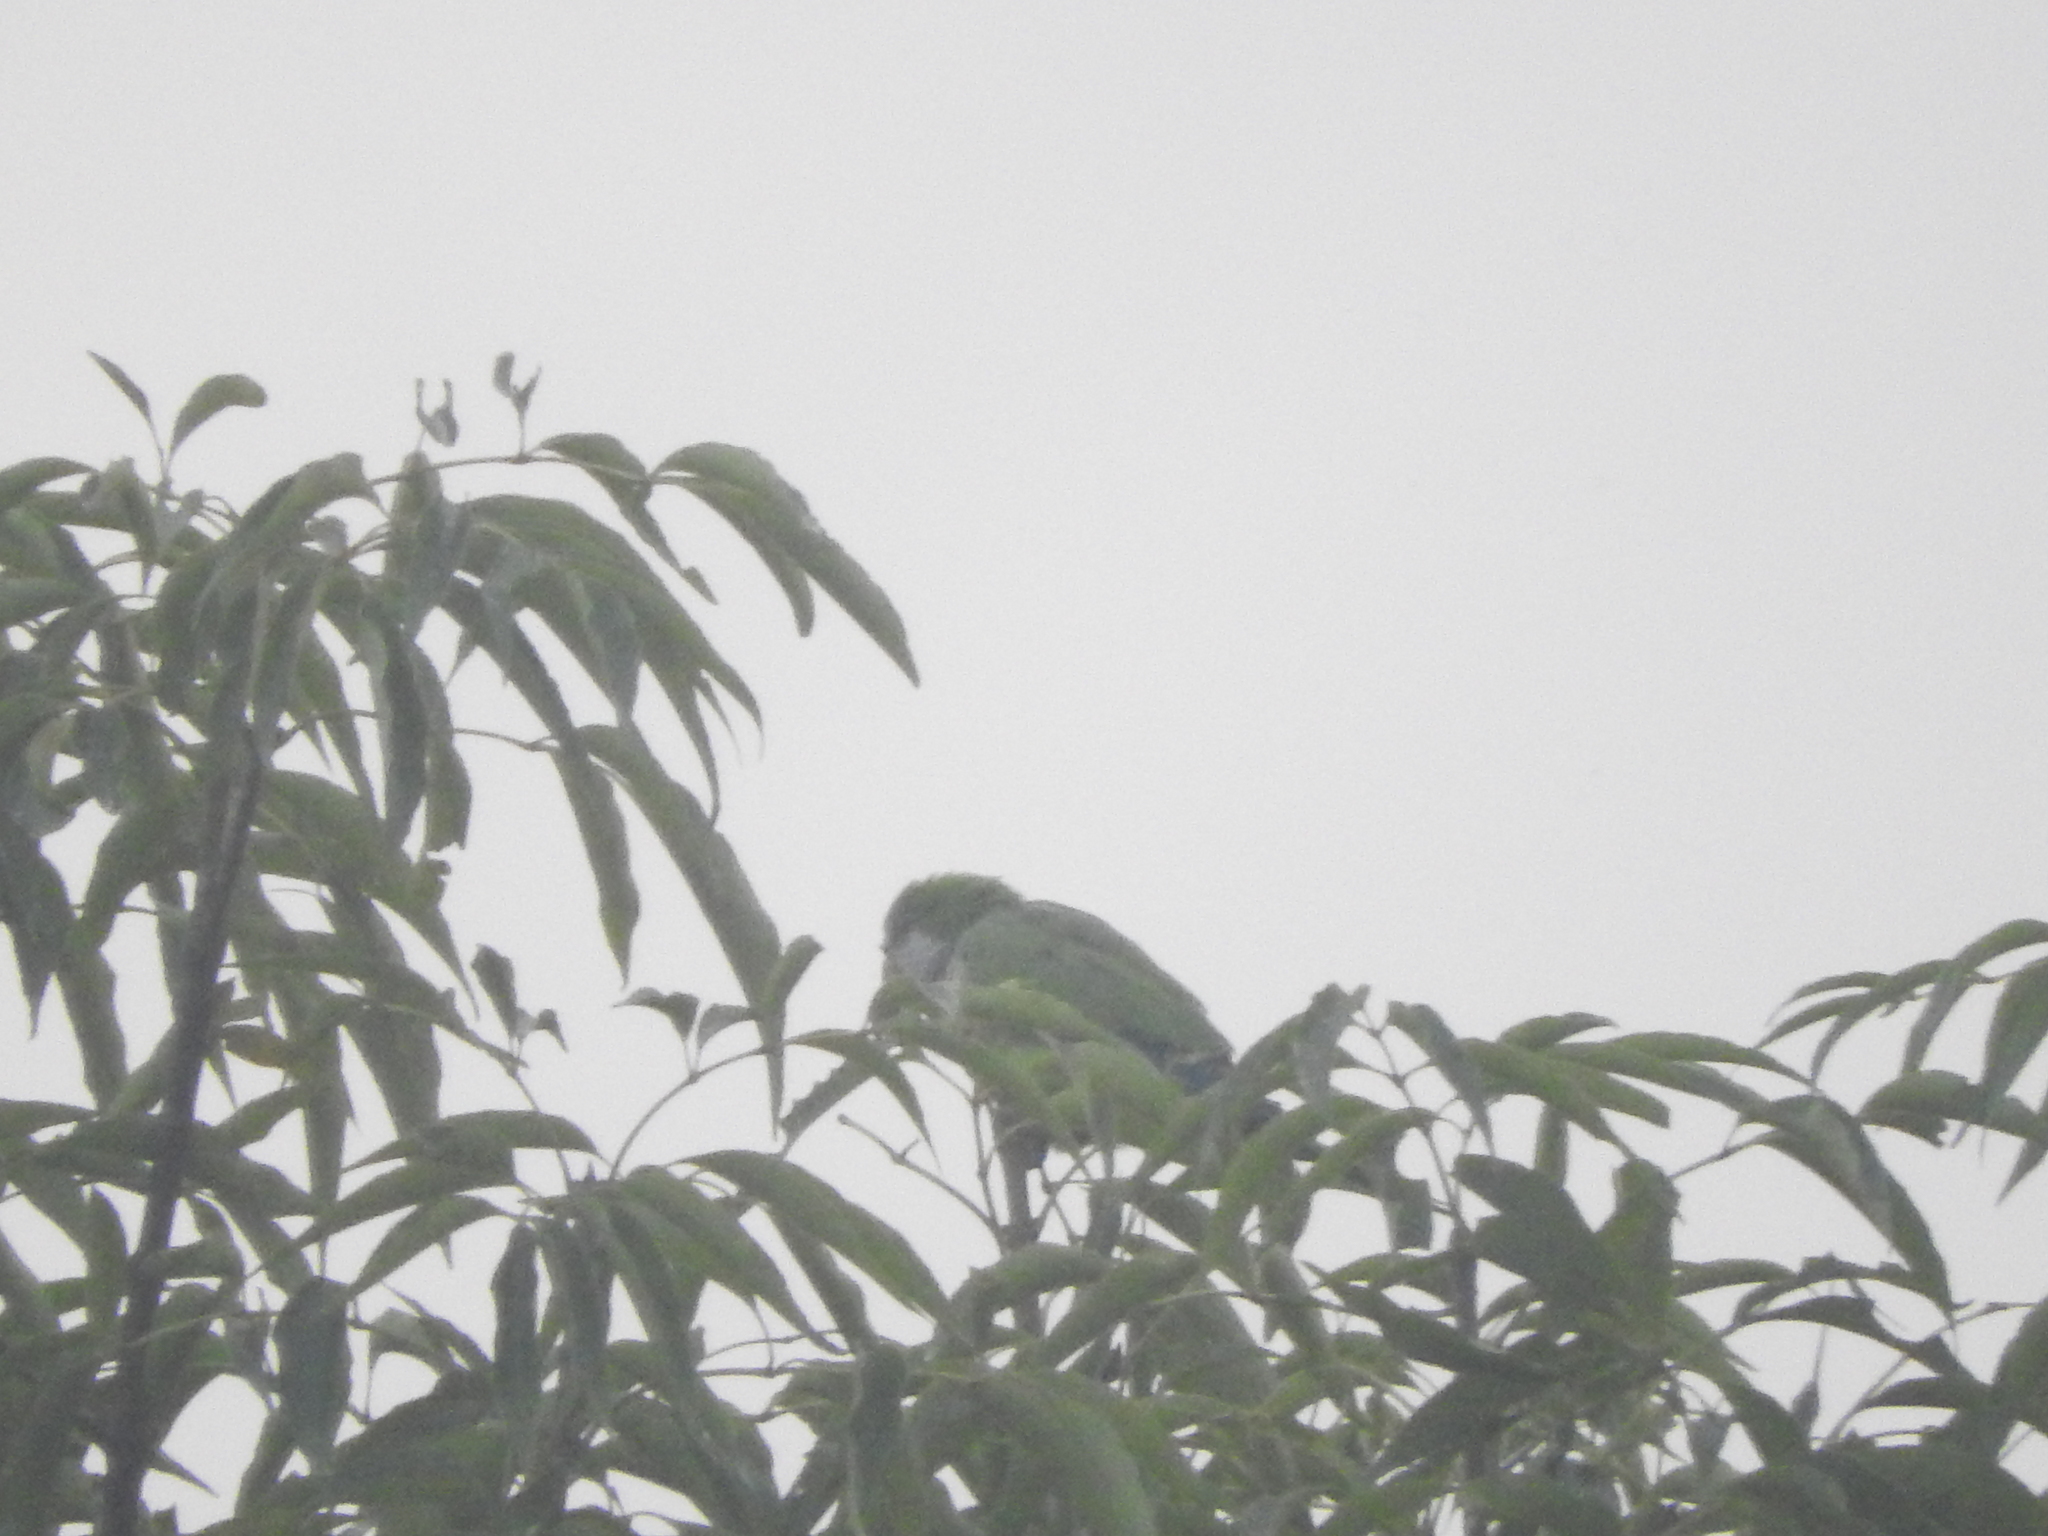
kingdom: Animalia
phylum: Chordata
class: Aves
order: Psittaciformes
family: Psittacidae
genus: Myiopsitta
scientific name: Myiopsitta monachus
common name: Monk parakeet
